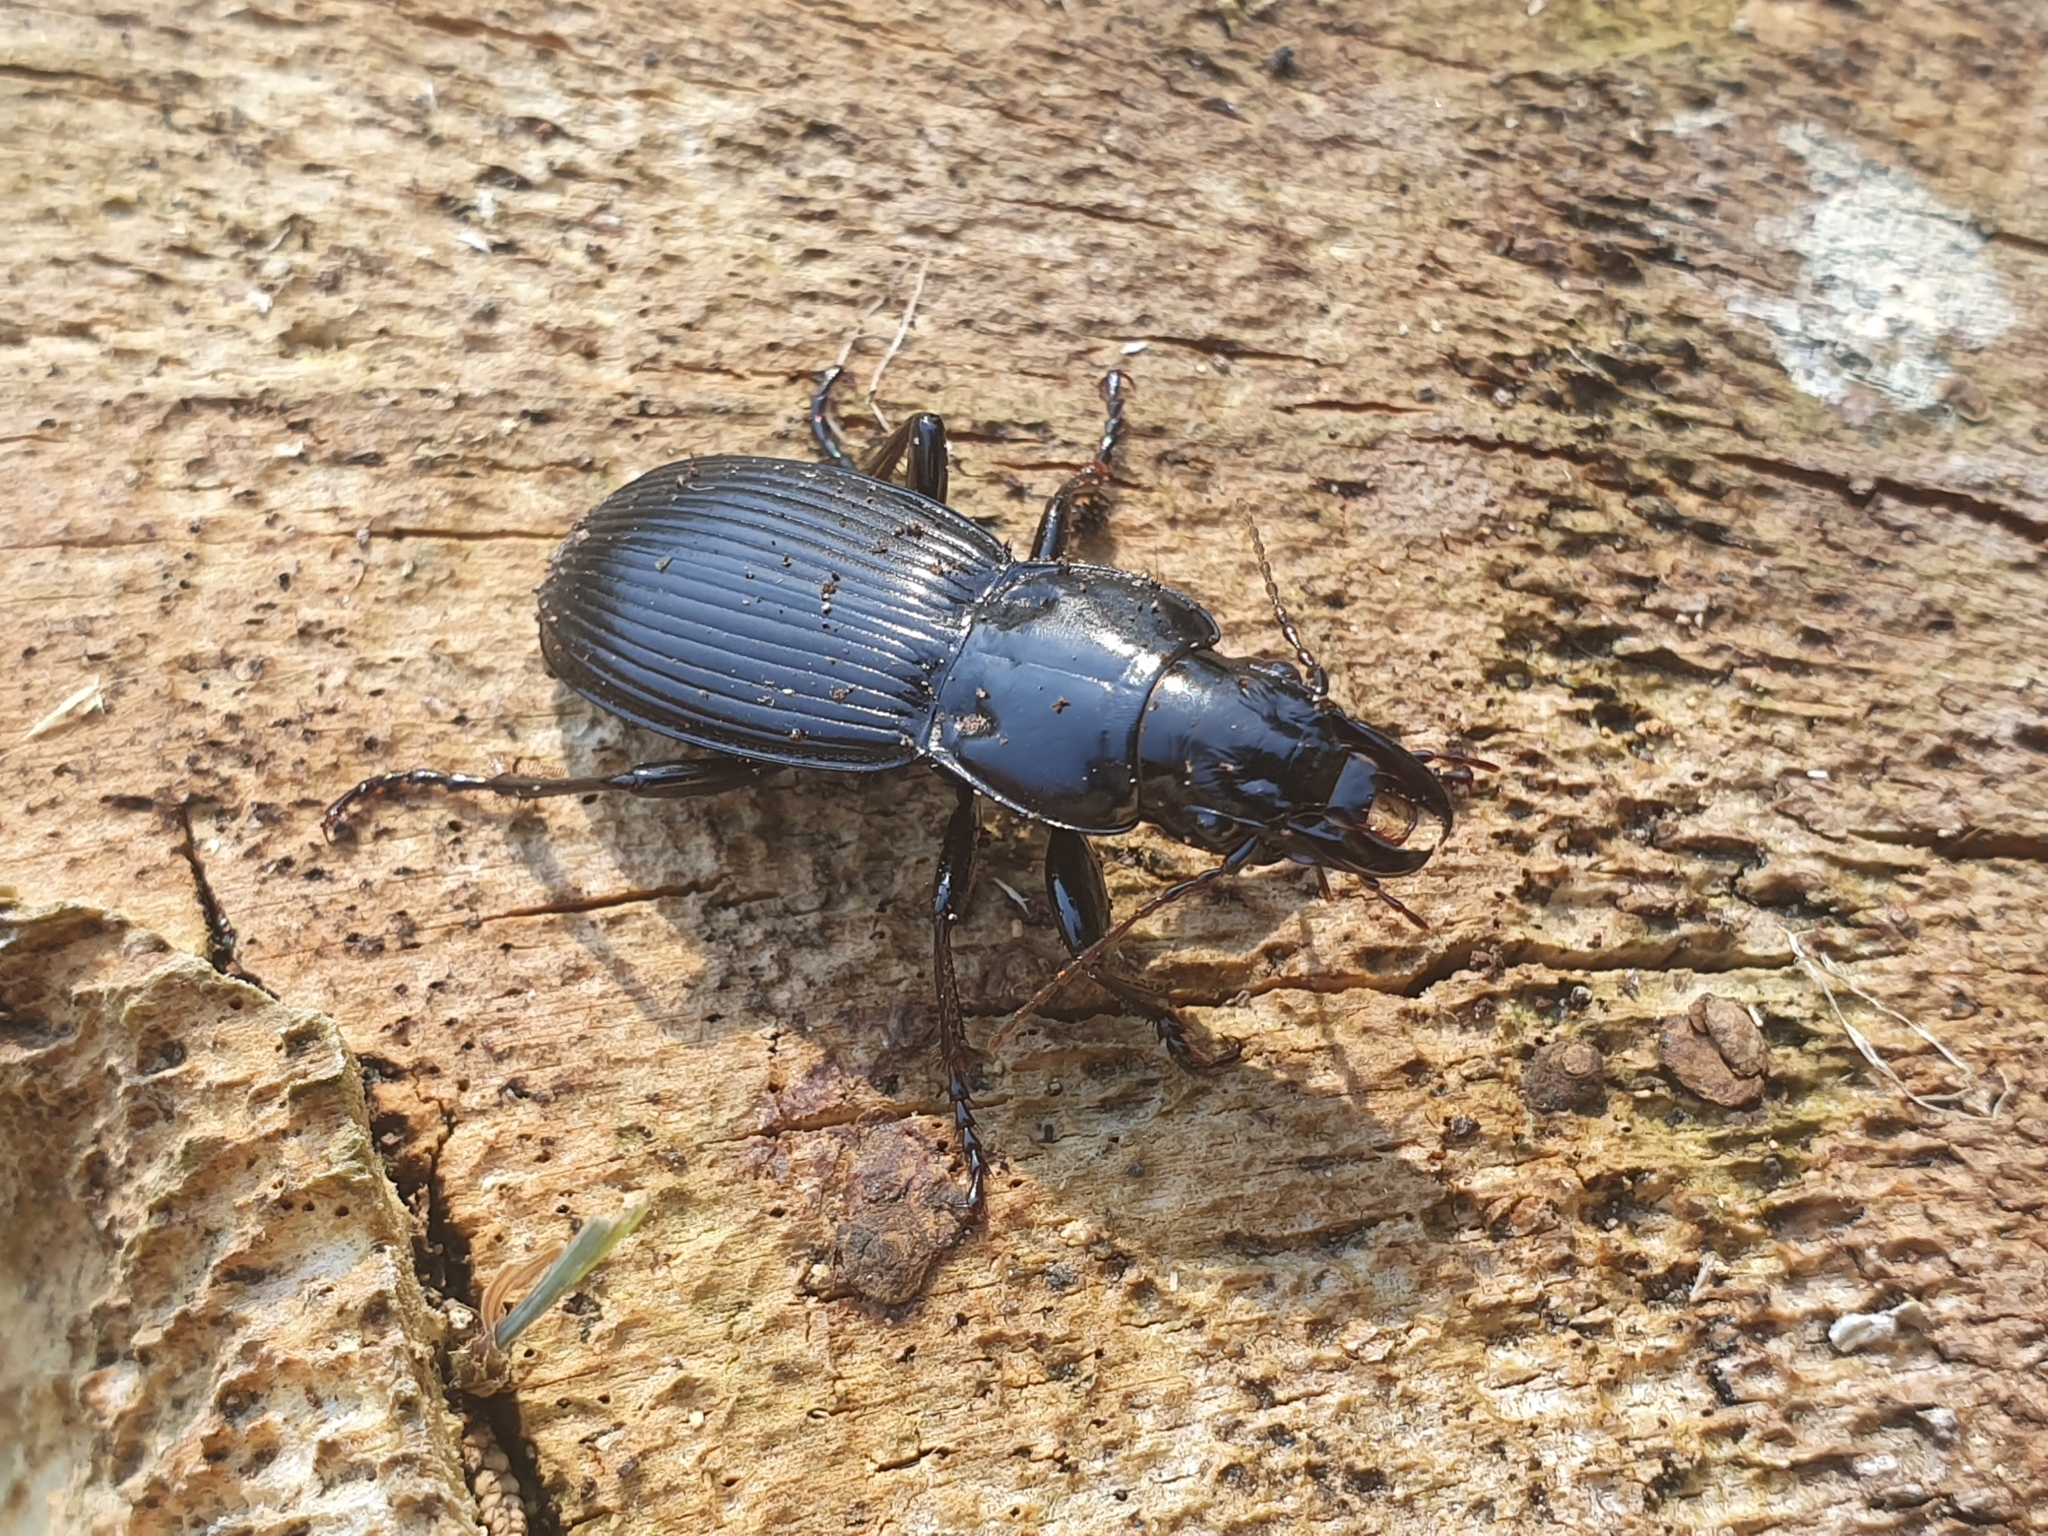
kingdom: Animalia
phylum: Arthropoda
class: Insecta
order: Coleoptera
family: Carabidae
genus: Plocamostethus
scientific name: Plocamostethus planiusculus
